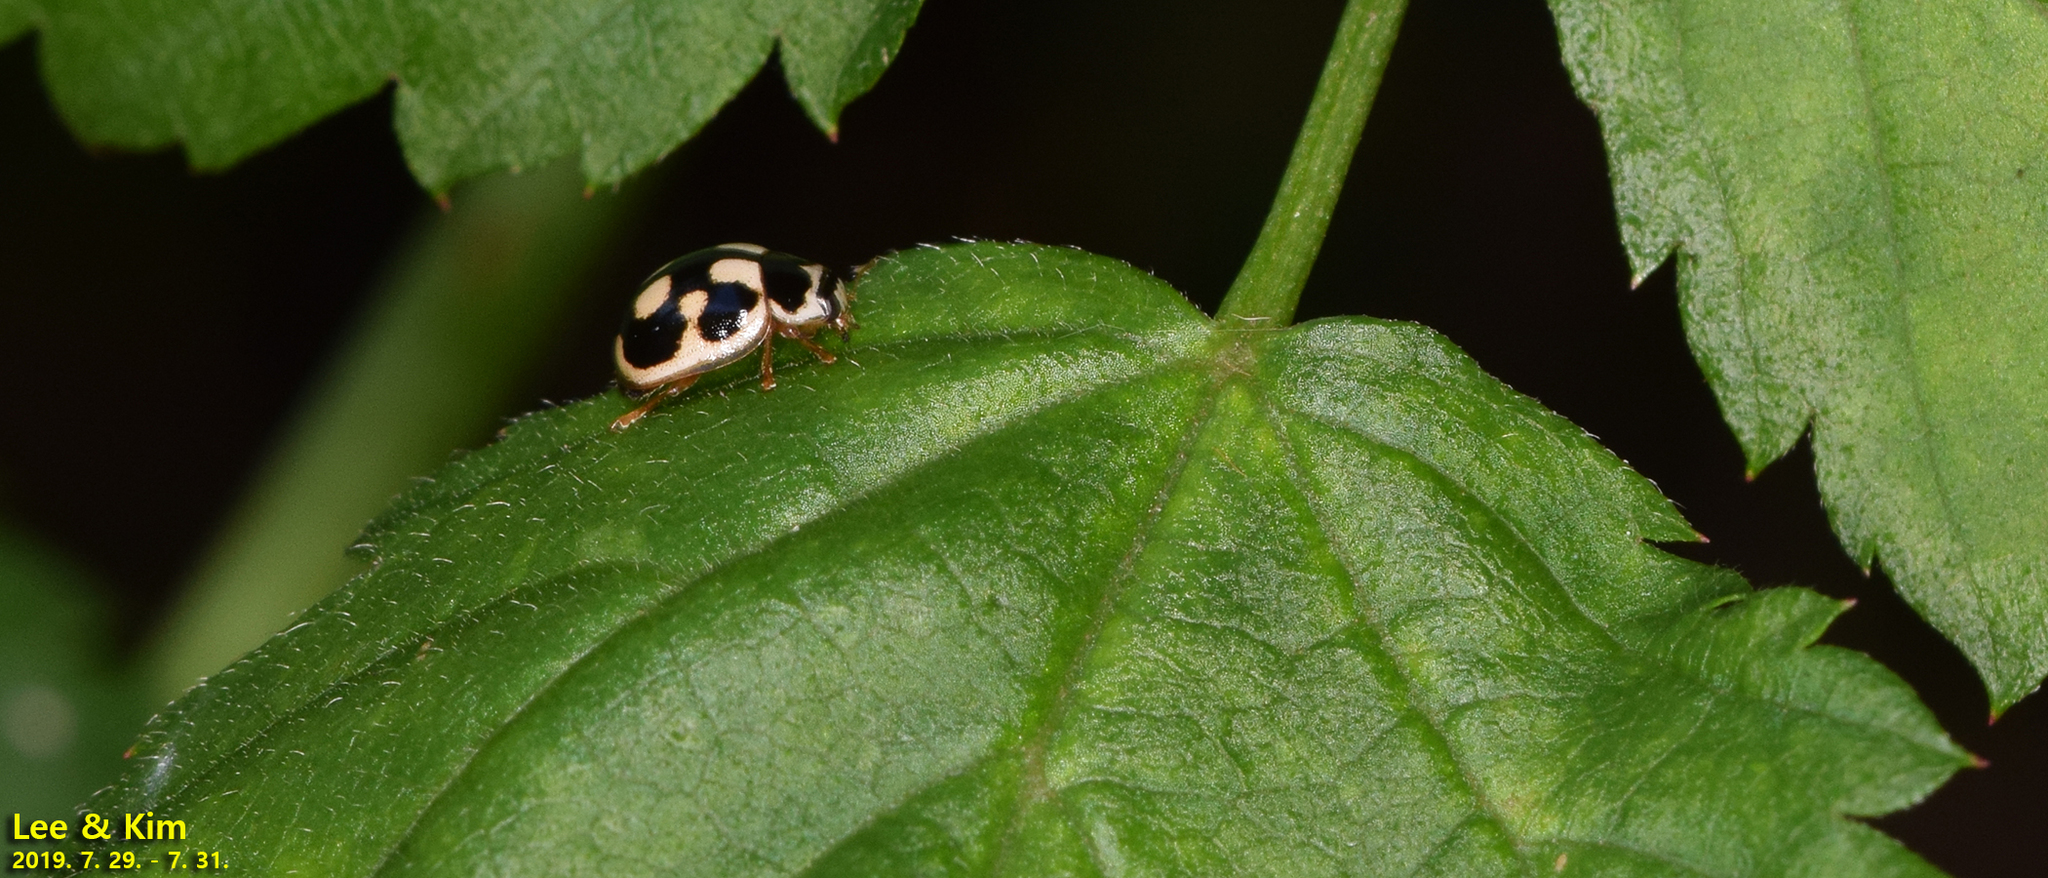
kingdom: Animalia
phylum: Arthropoda
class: Insecta
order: Coleoptera
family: Coccinellidae
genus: Propylea
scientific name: Propylea japonica
